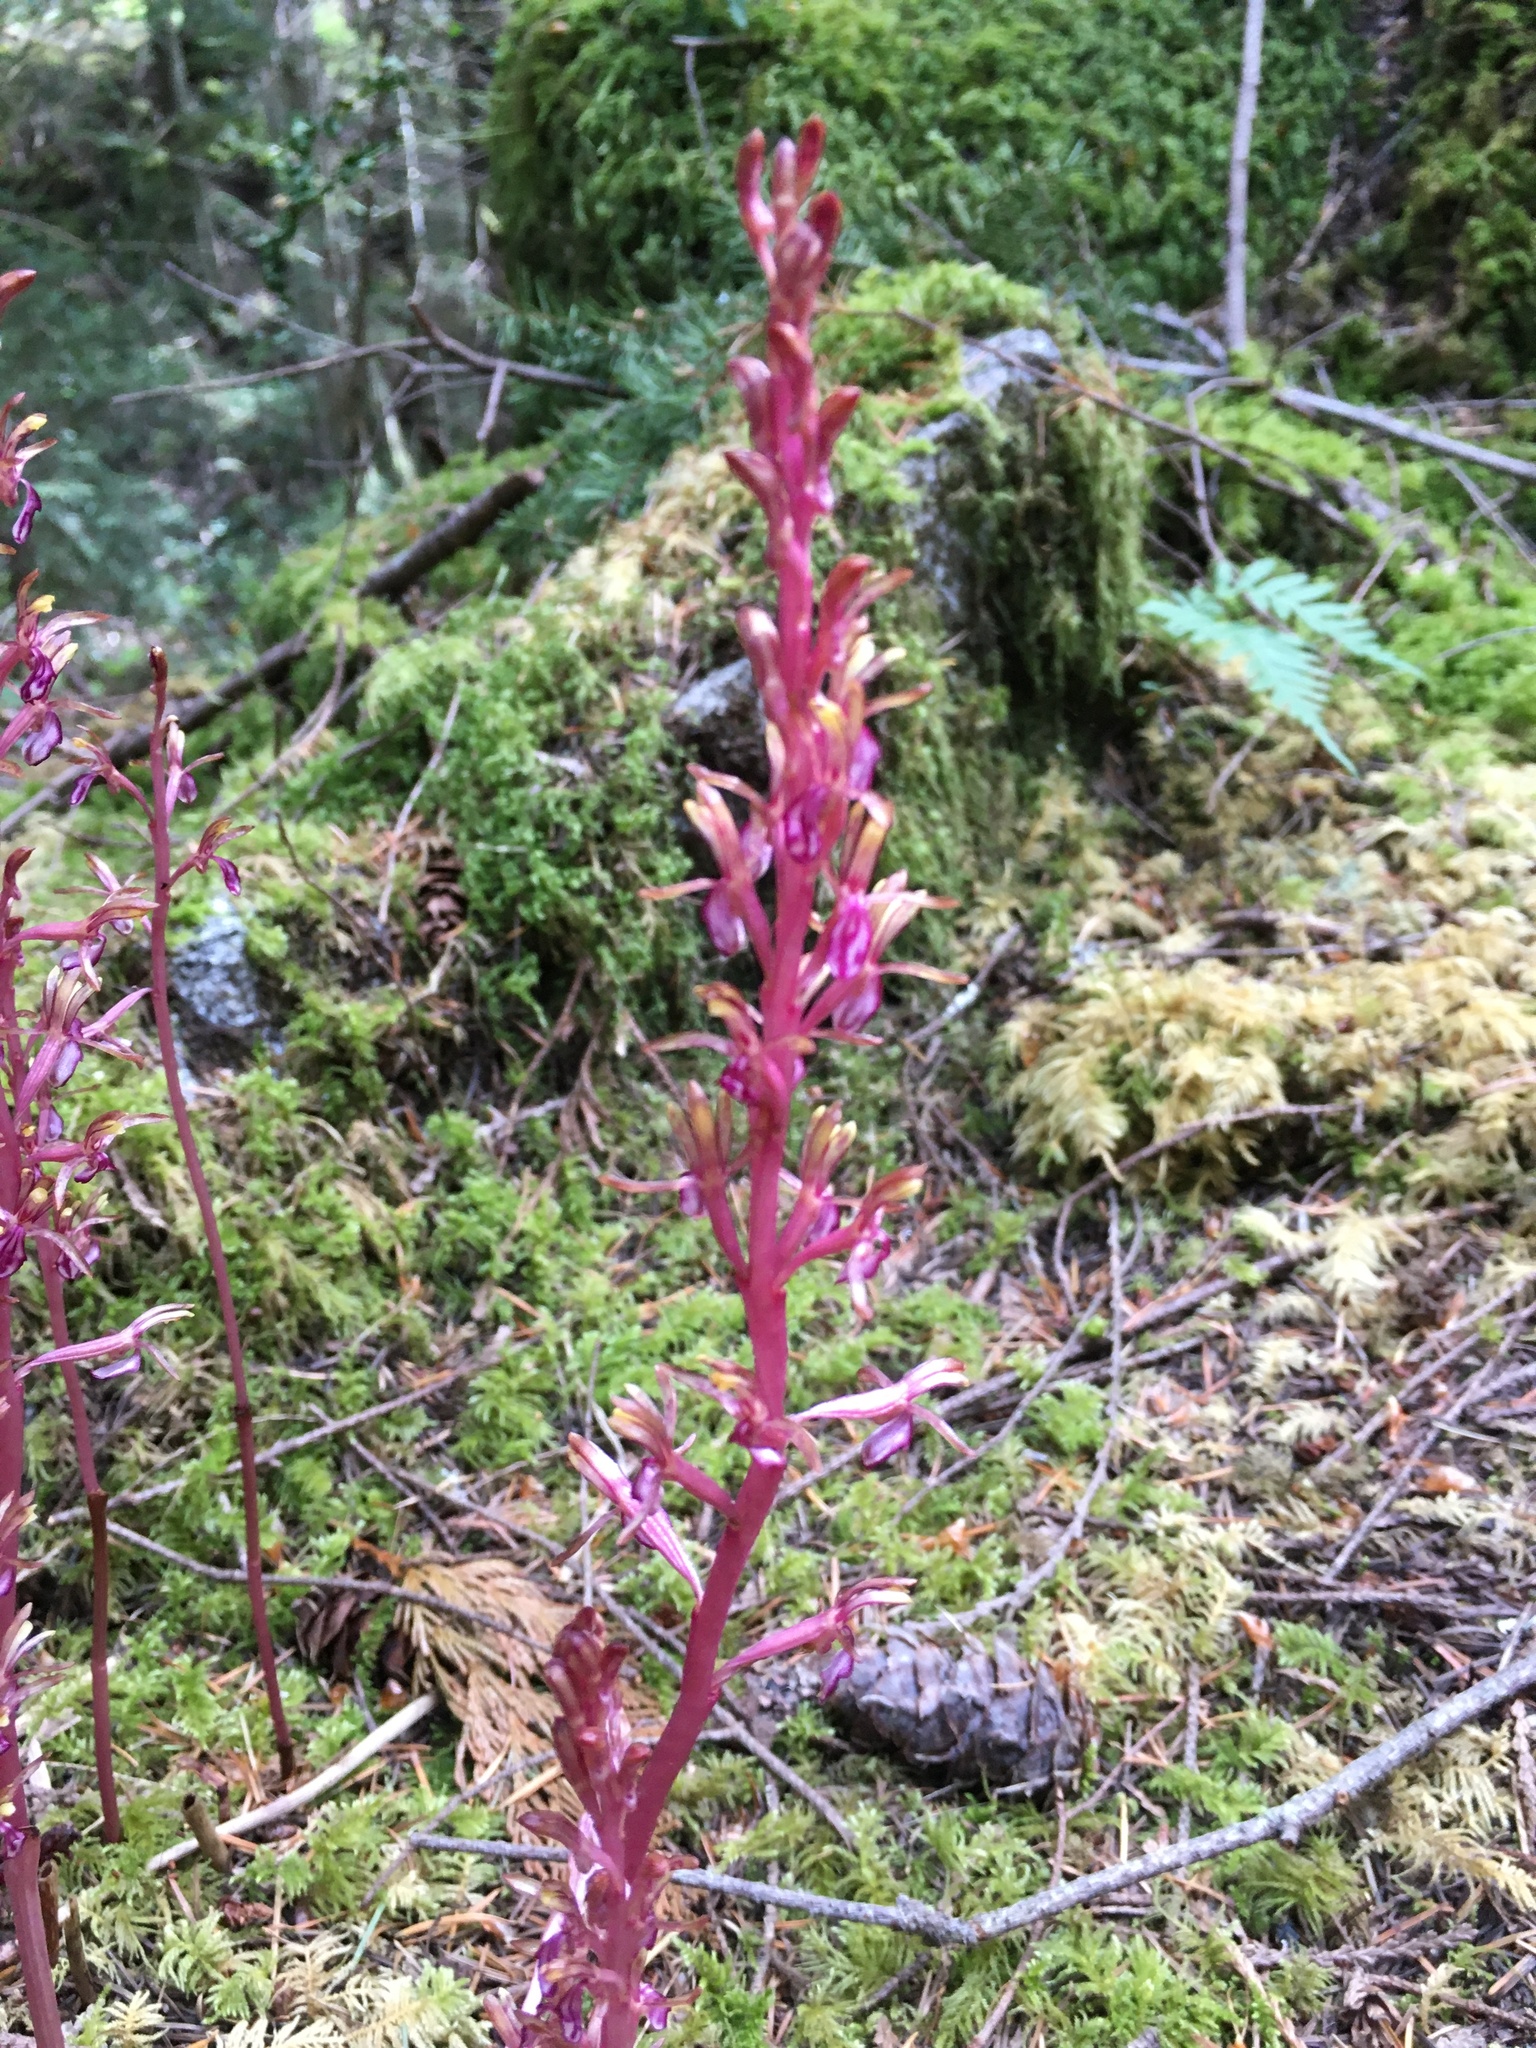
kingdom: Plantae
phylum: Tracheophyta
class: Liliopsida
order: Asparagales
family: Orchidaceae
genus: Corallorhiza
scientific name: Corallorhiza mertensiana
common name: Pacific coralroot
